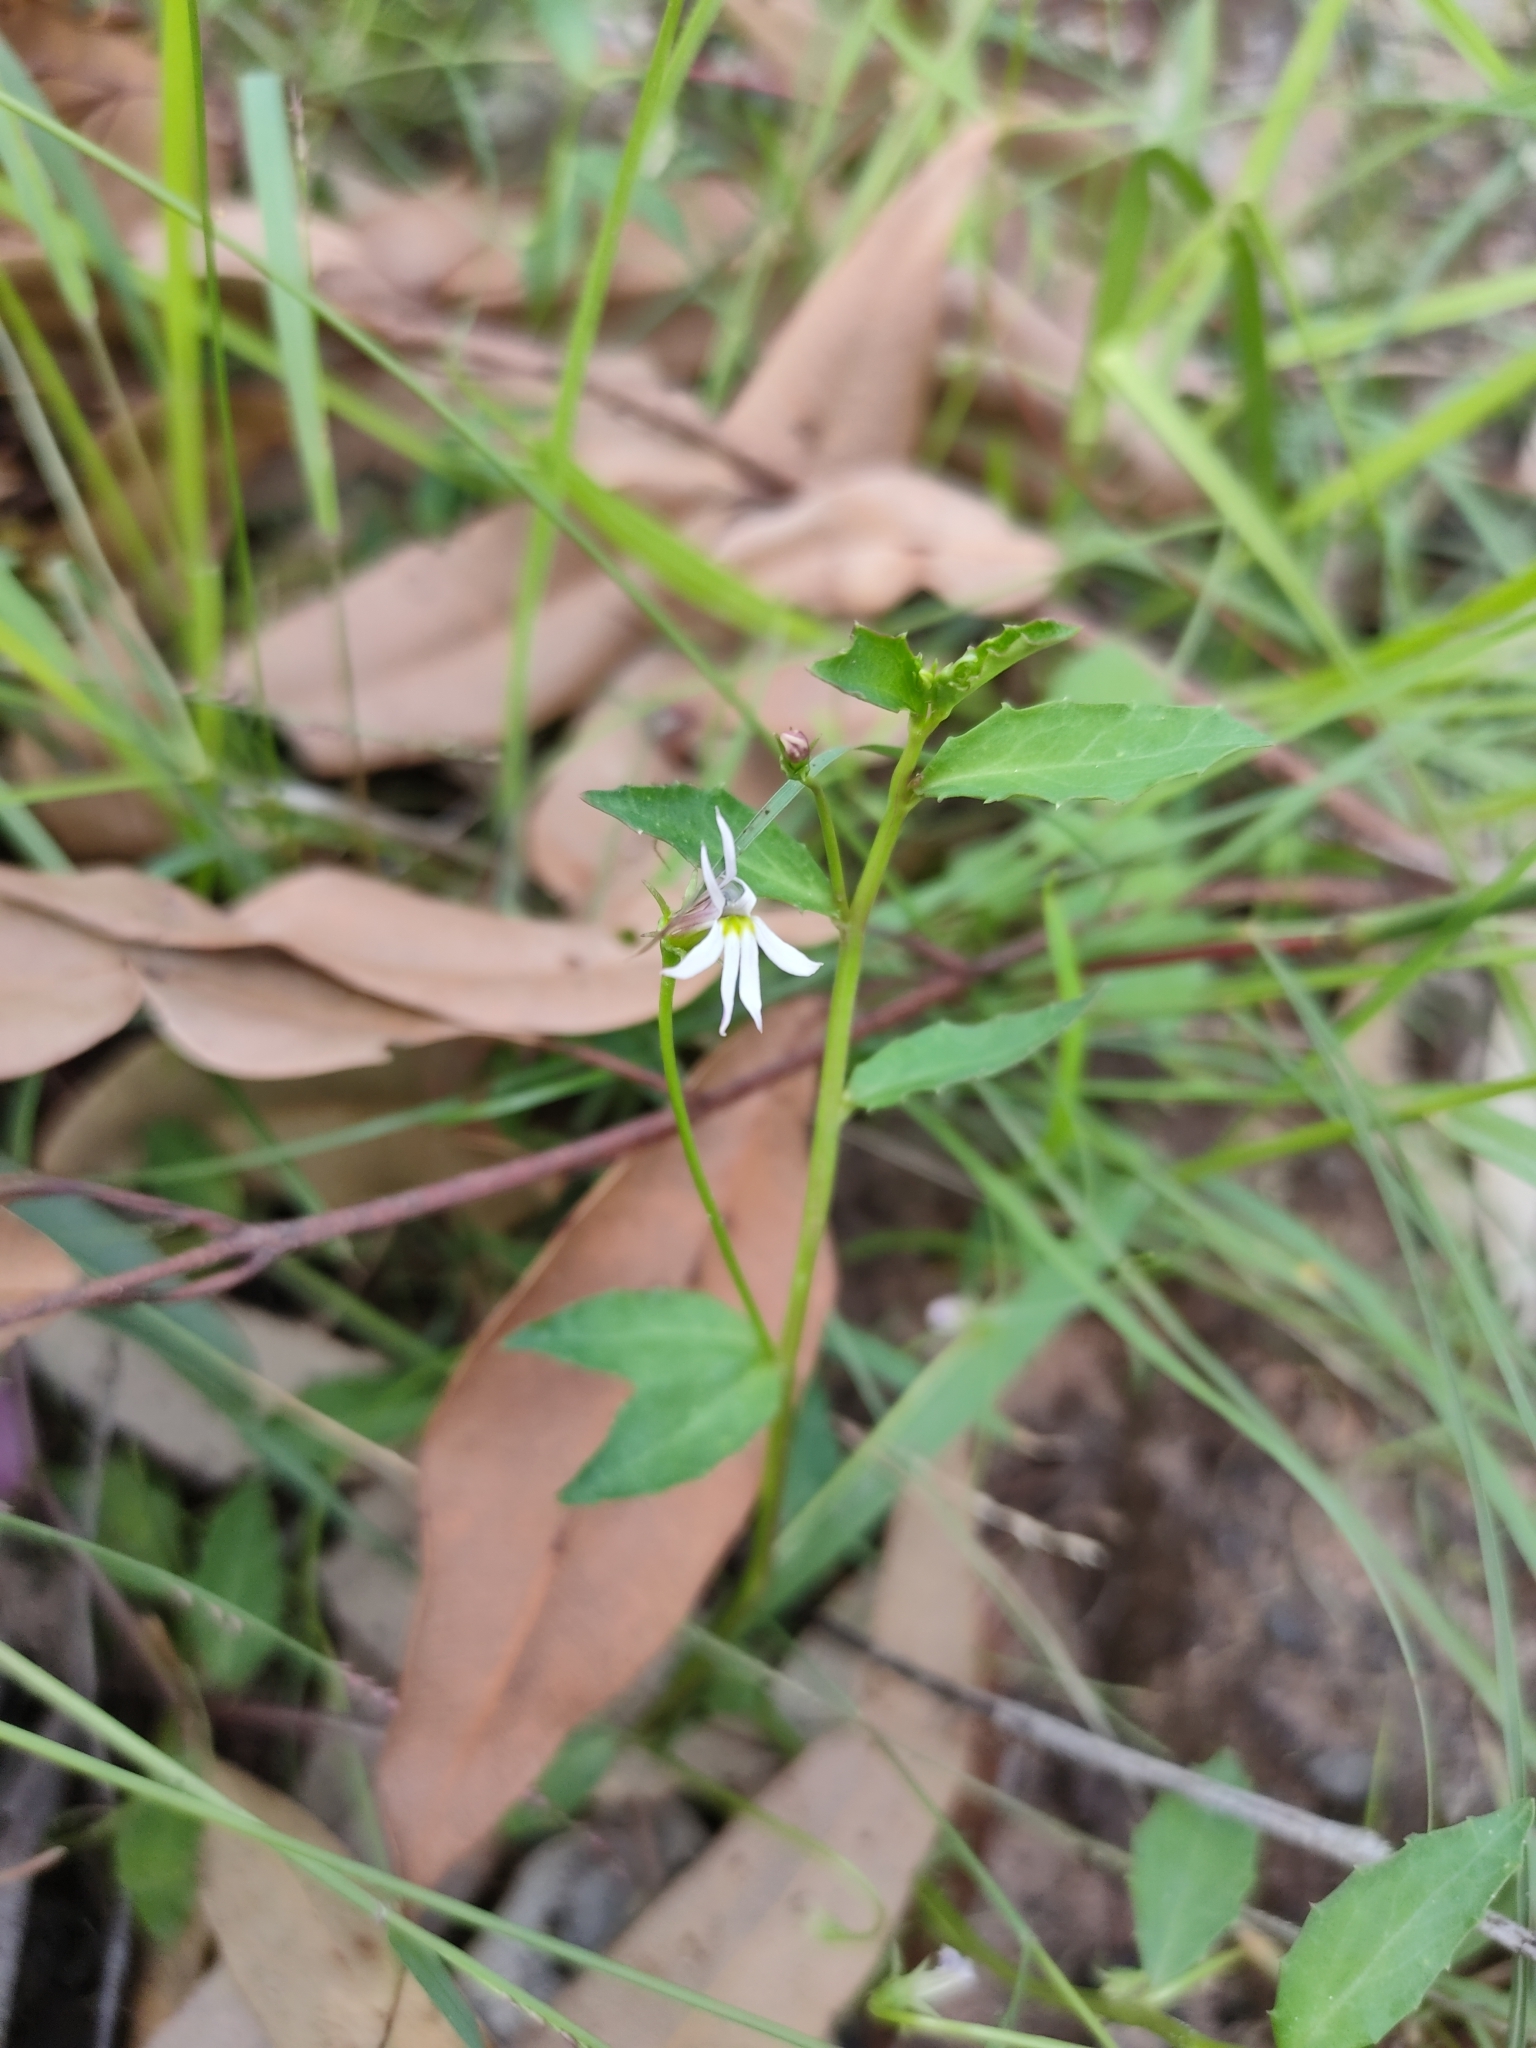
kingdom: Plantae
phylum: Tracheophyta
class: Magnoliopsida
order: Asterales
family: Campanulaceae
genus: Lobelia
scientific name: Lobelia purpurascens
